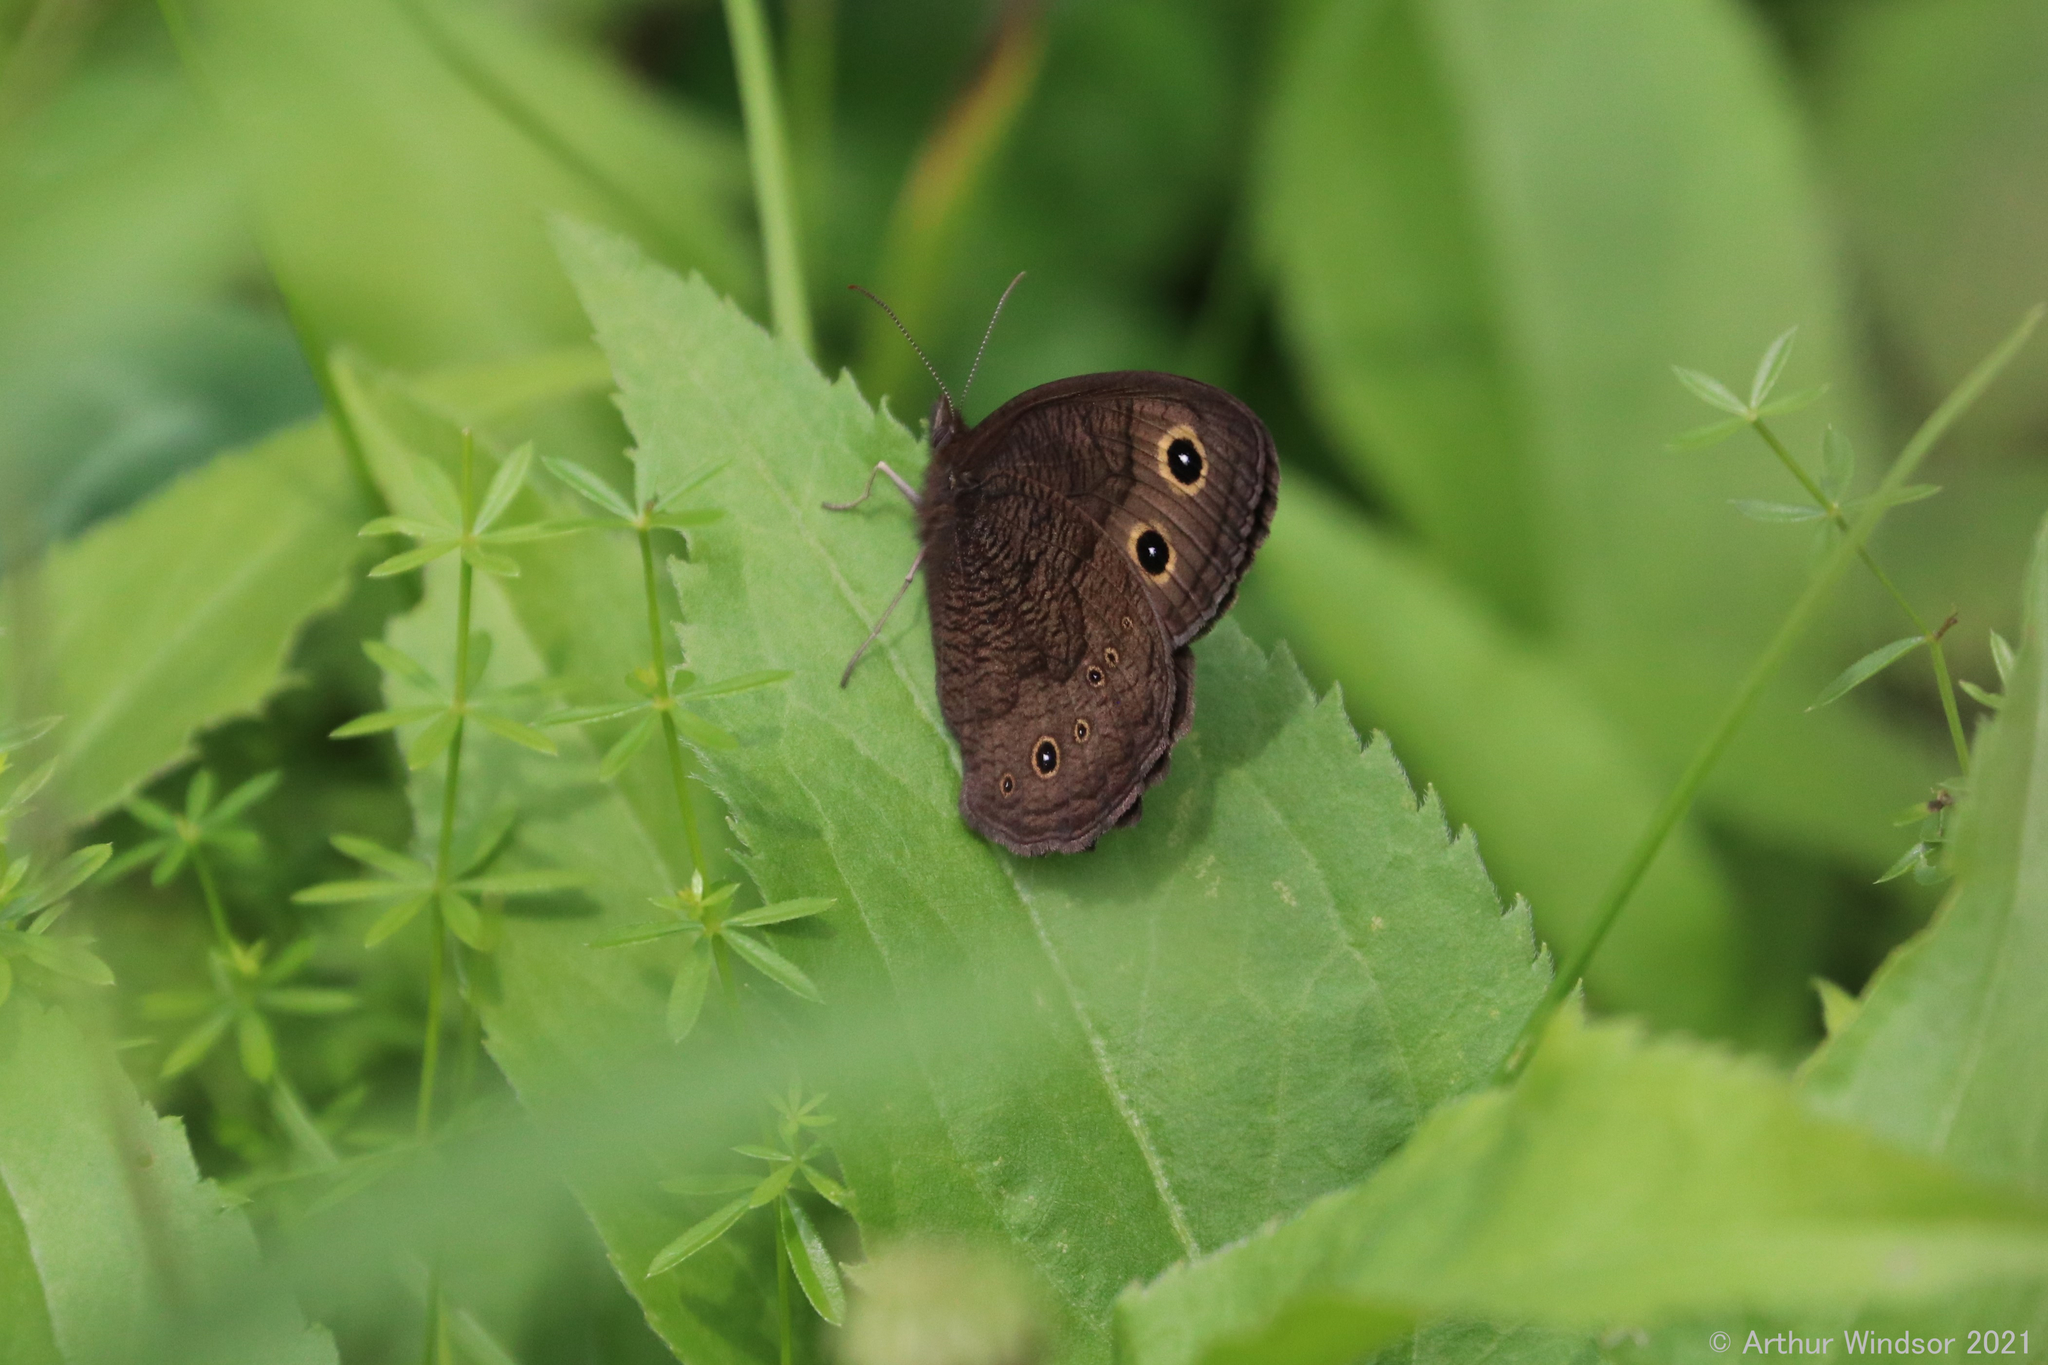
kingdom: Animalia
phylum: Arthropoda
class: Insecta
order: Lepidoptera
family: Nymphalidae
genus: Cercyonis
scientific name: Cercyonis pegala
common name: Common wood-nymph
